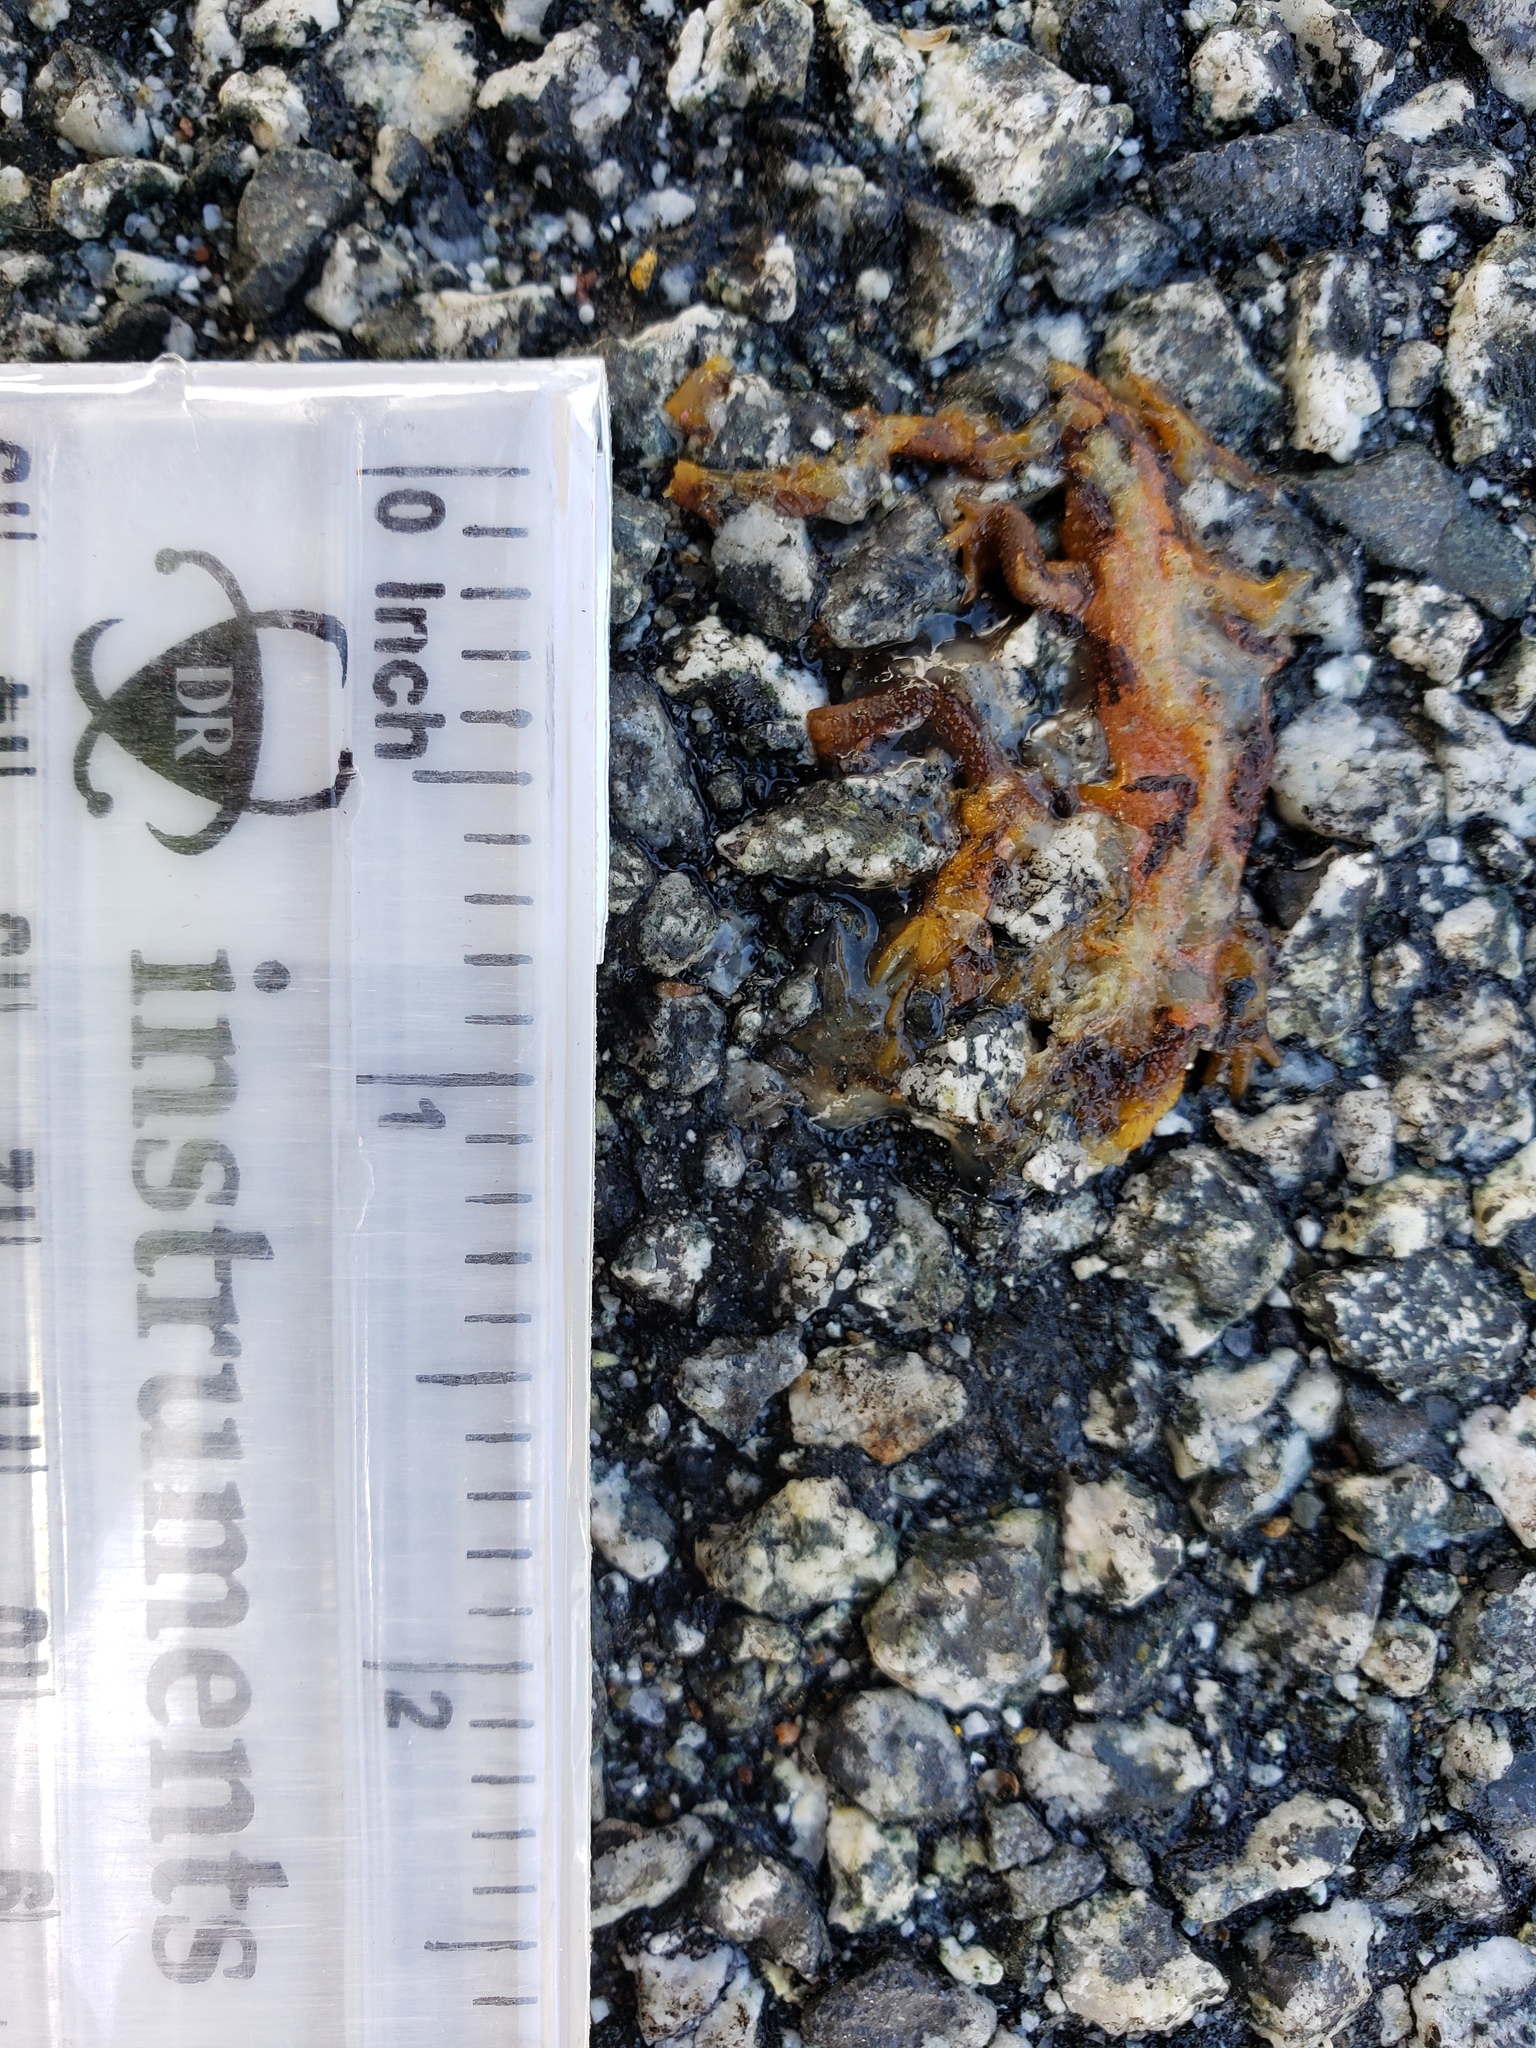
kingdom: Animalia
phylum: Chordata
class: Amphibia
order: Caudata
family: Salamandridae
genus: Taricha
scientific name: Taricha
